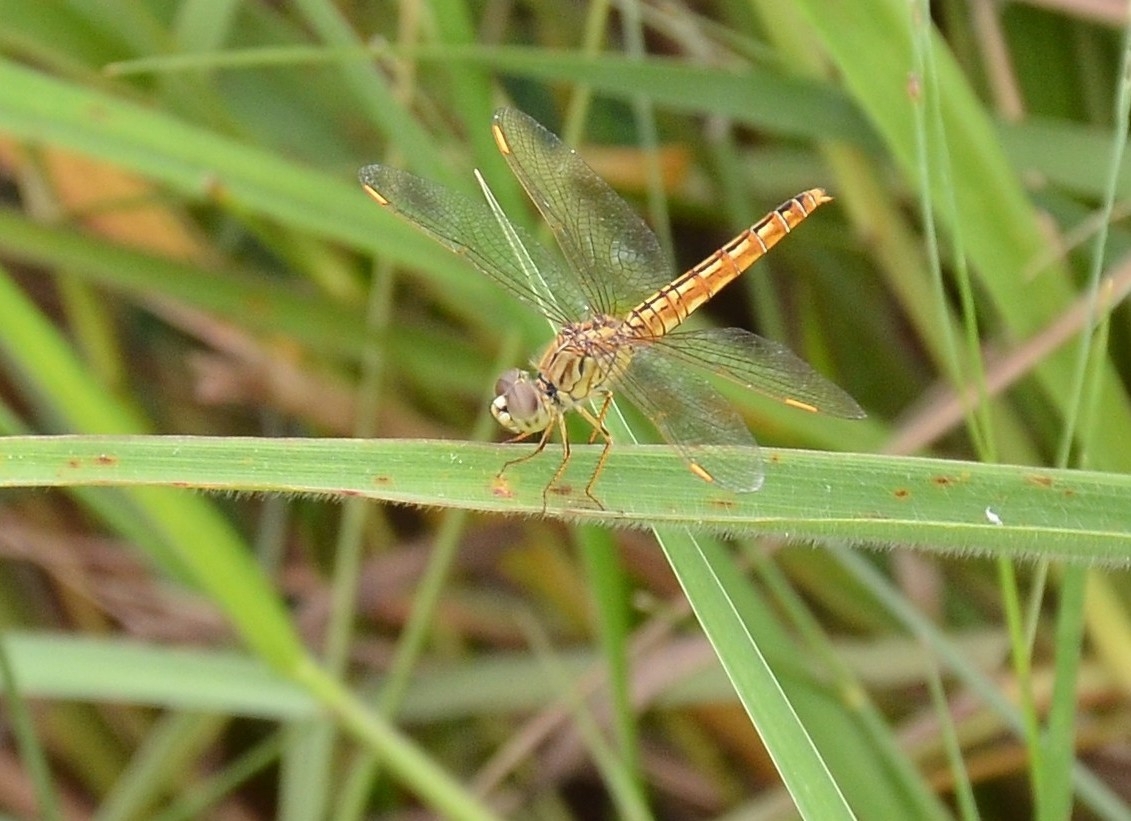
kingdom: Animalia
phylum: Arthropoda
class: Insecta
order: Odonata
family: Libellulidae
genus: Brachythemis
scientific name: Brachythemis contaminata
